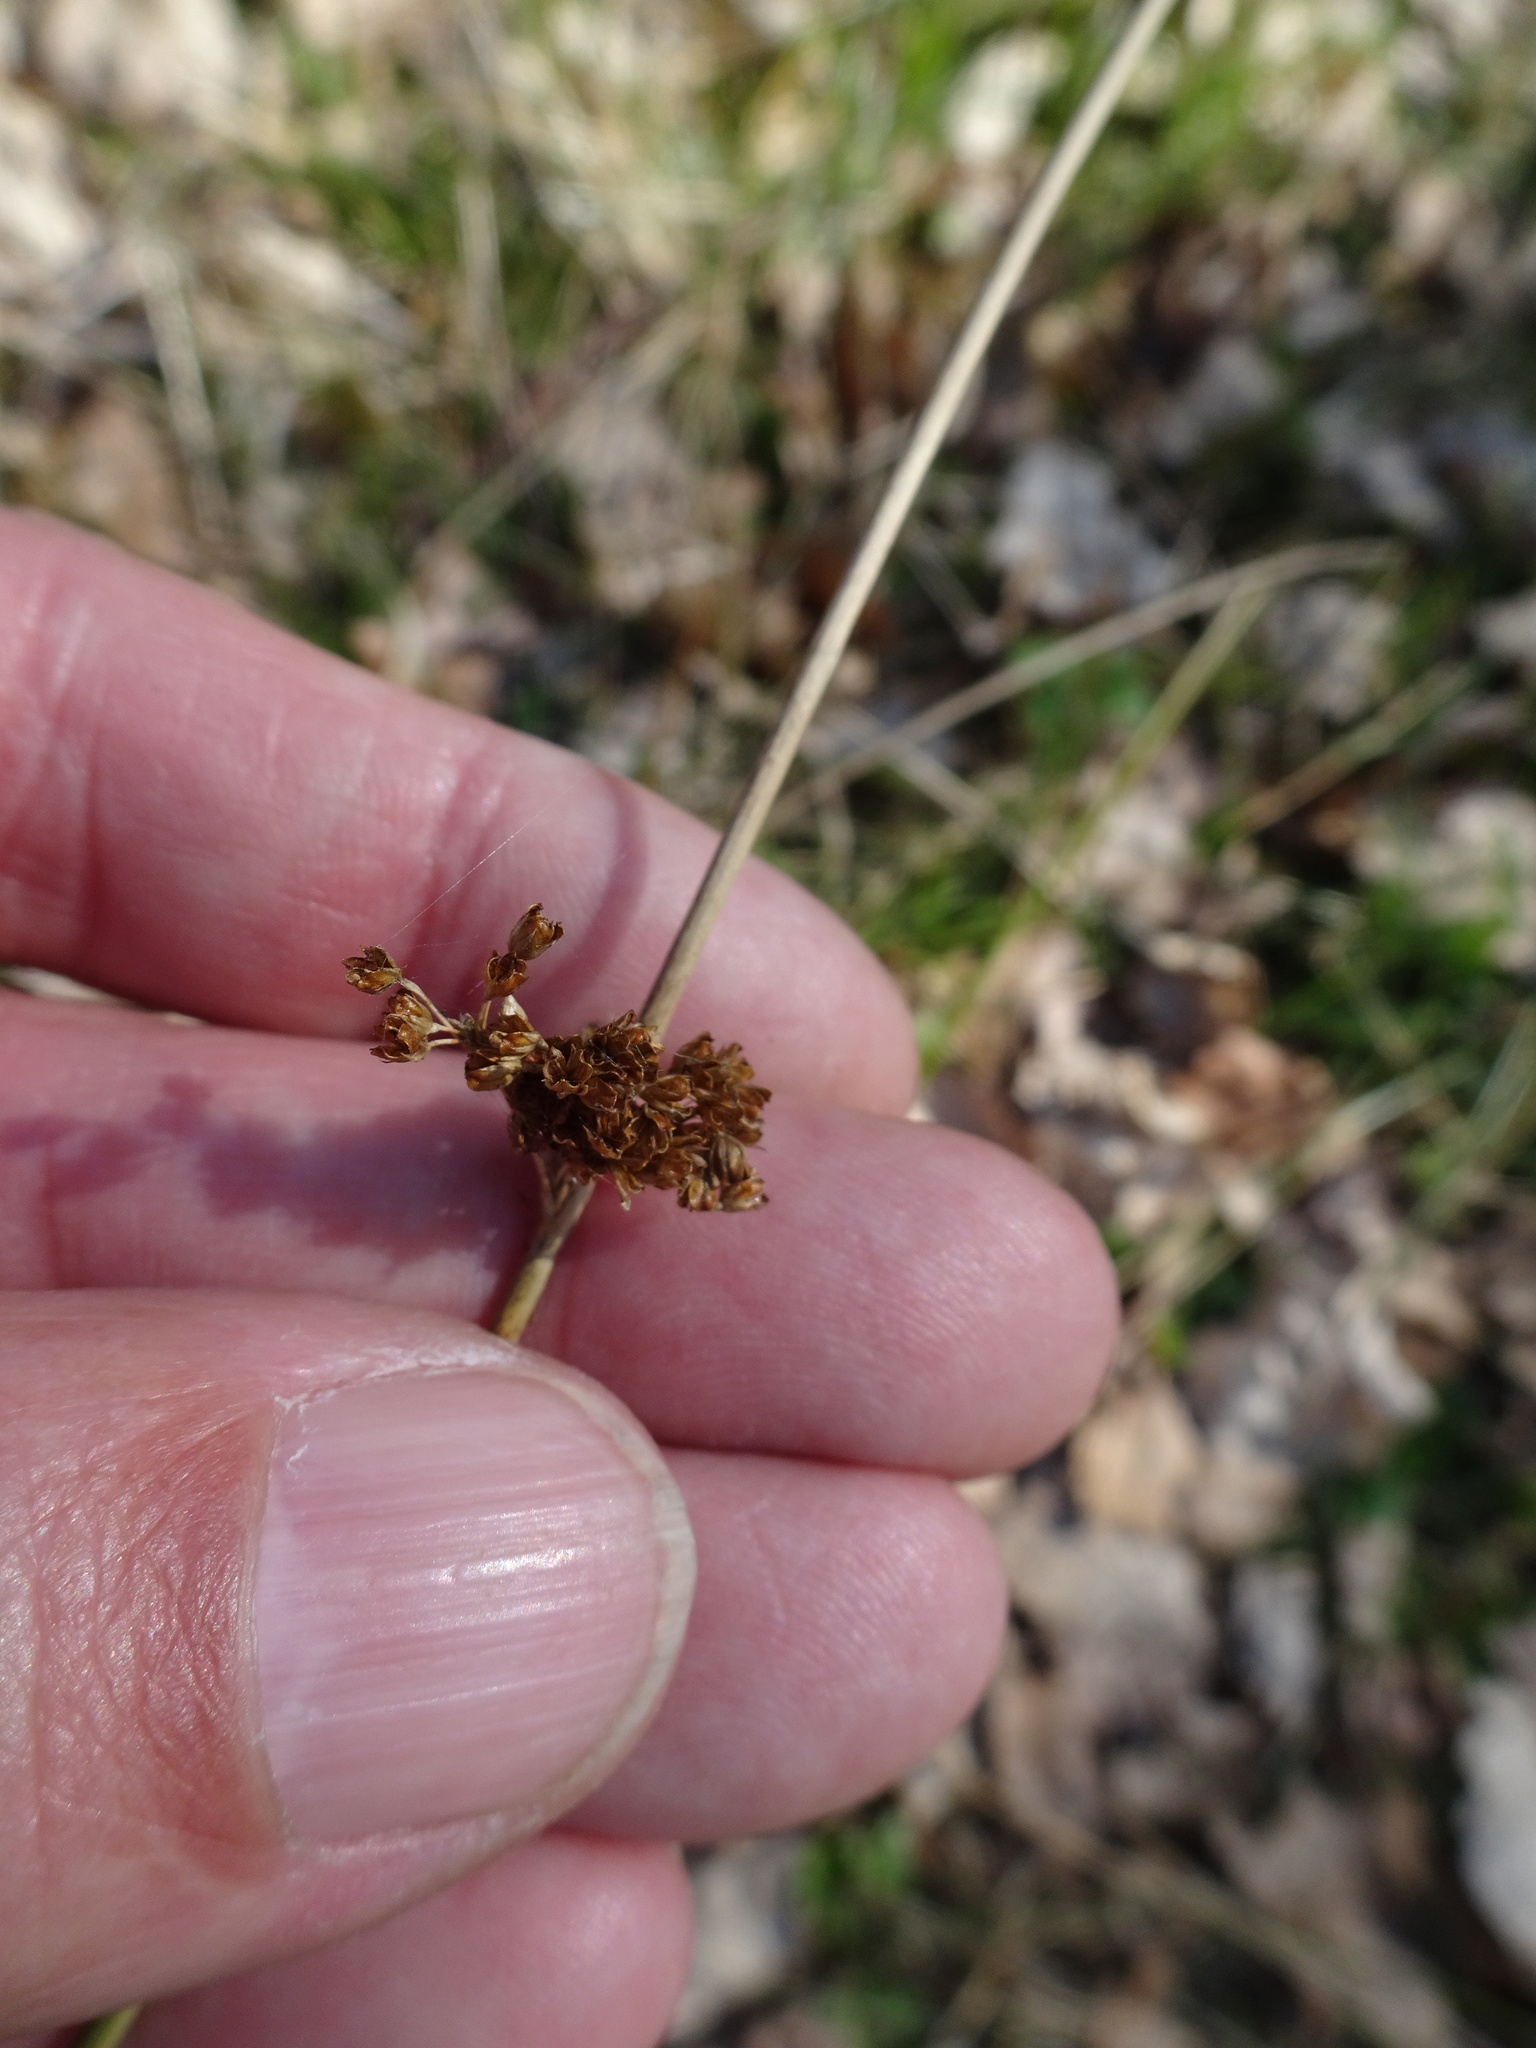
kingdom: Plantae
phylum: Tracheophyta
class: Liliopsida
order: Poales
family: Juncaceae
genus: Juncus
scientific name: Juncus effusus
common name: Soft rush
